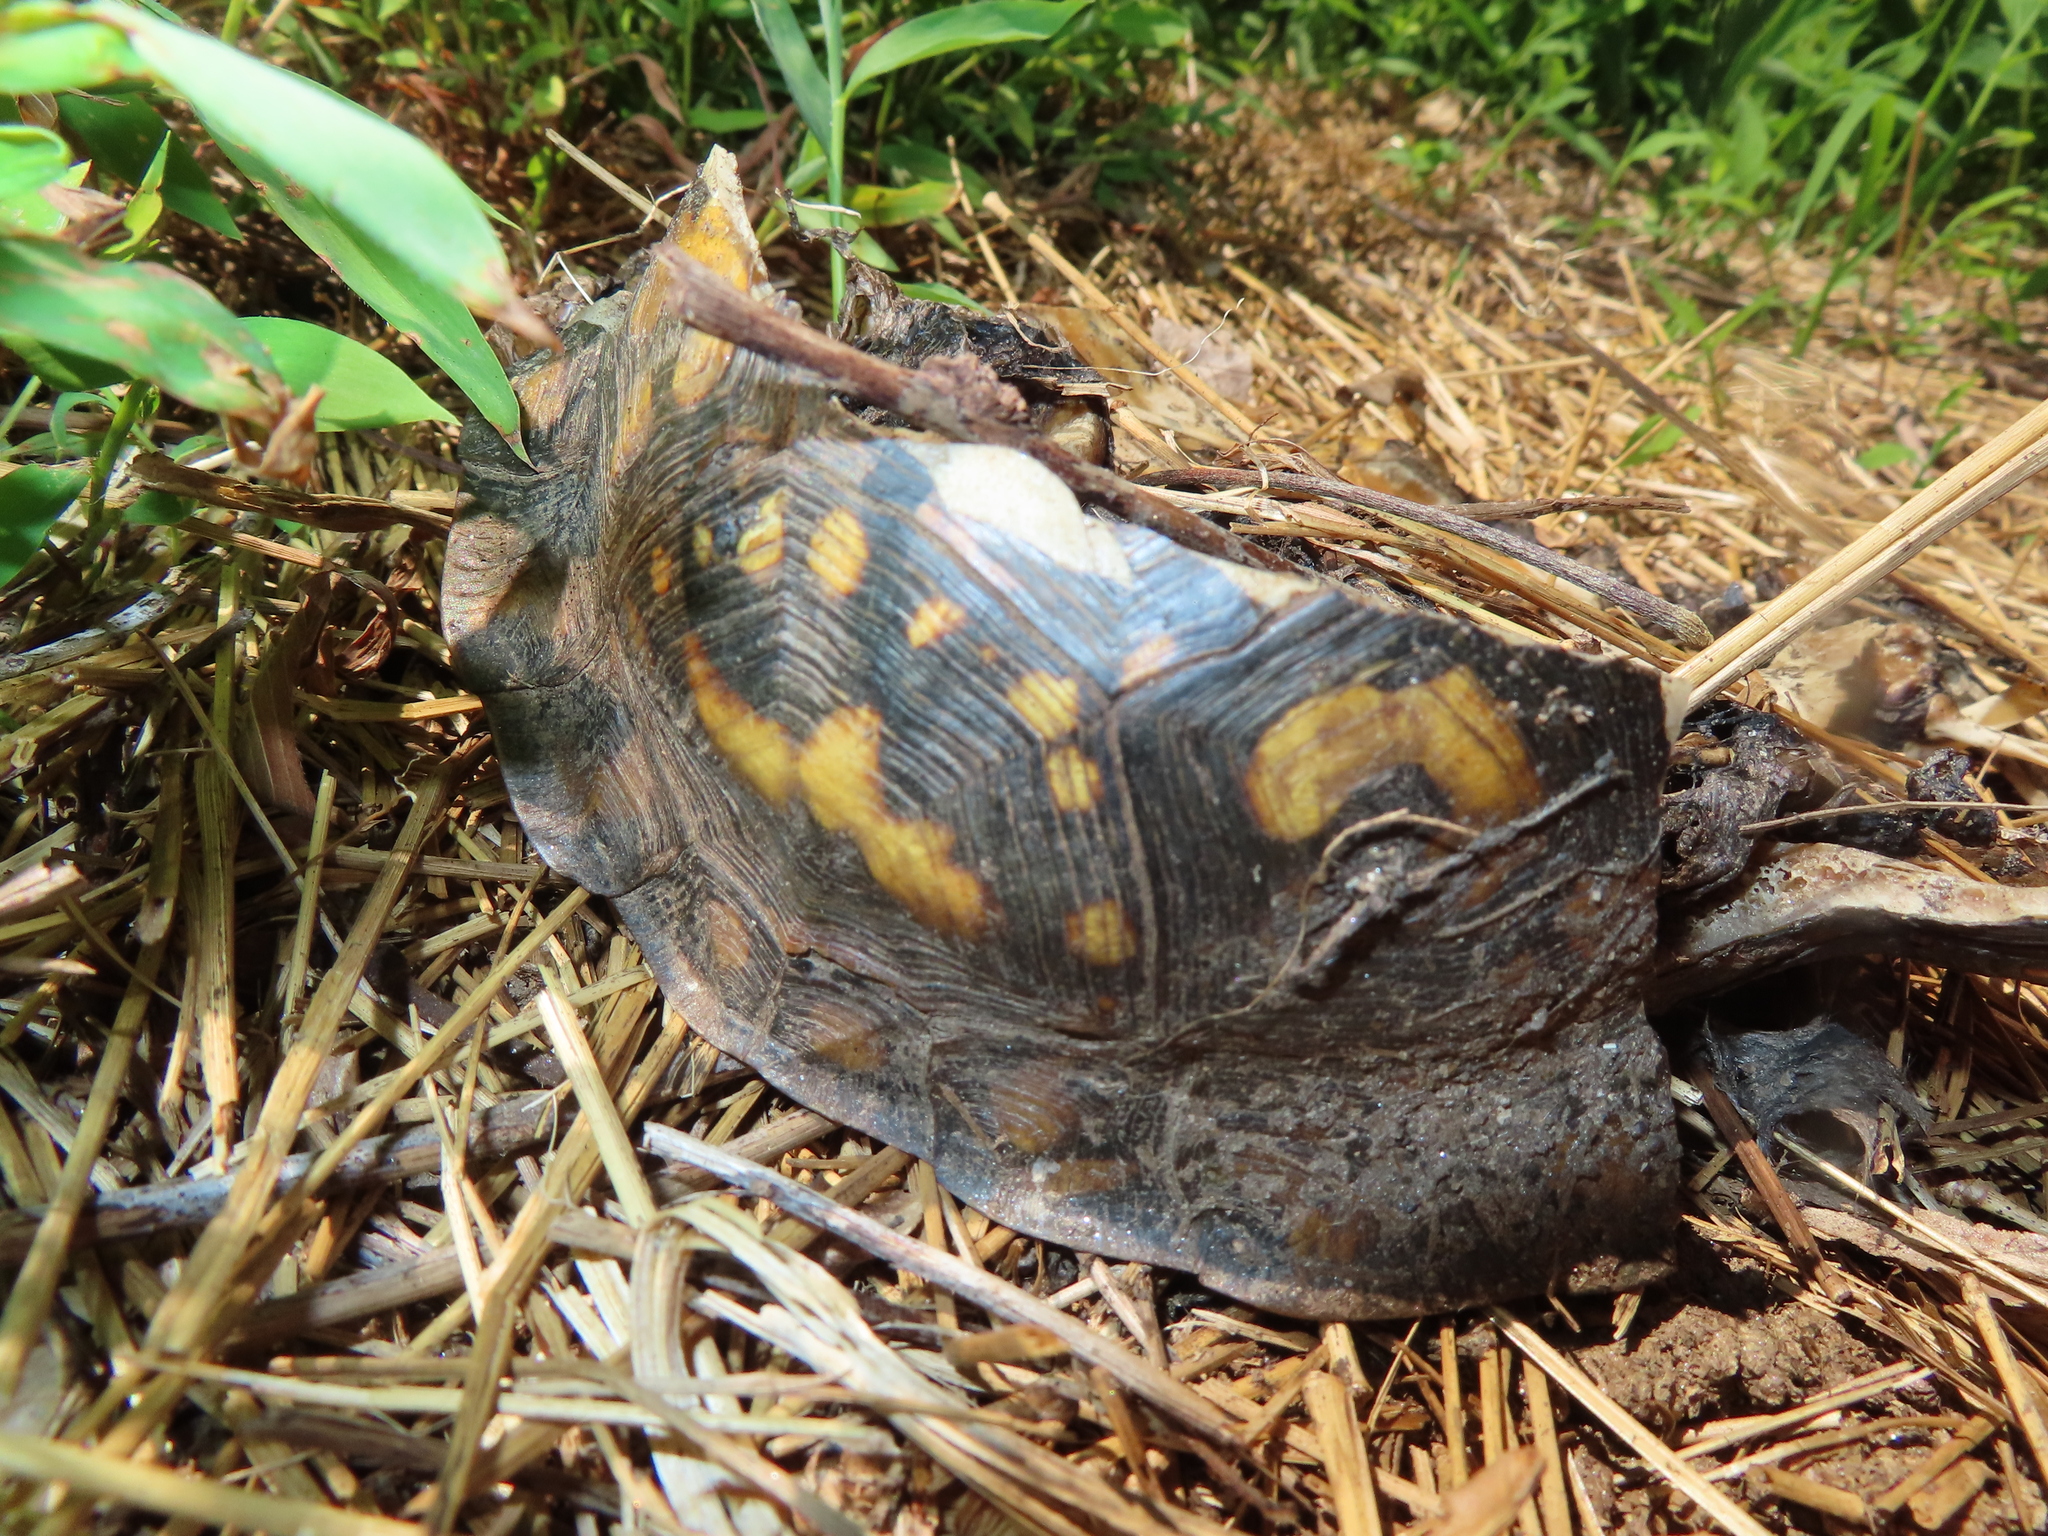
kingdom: Animalia
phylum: Chordata
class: Testudines
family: Emydidae
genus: Terrapene
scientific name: Terrapene carolina
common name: Common box turtle
